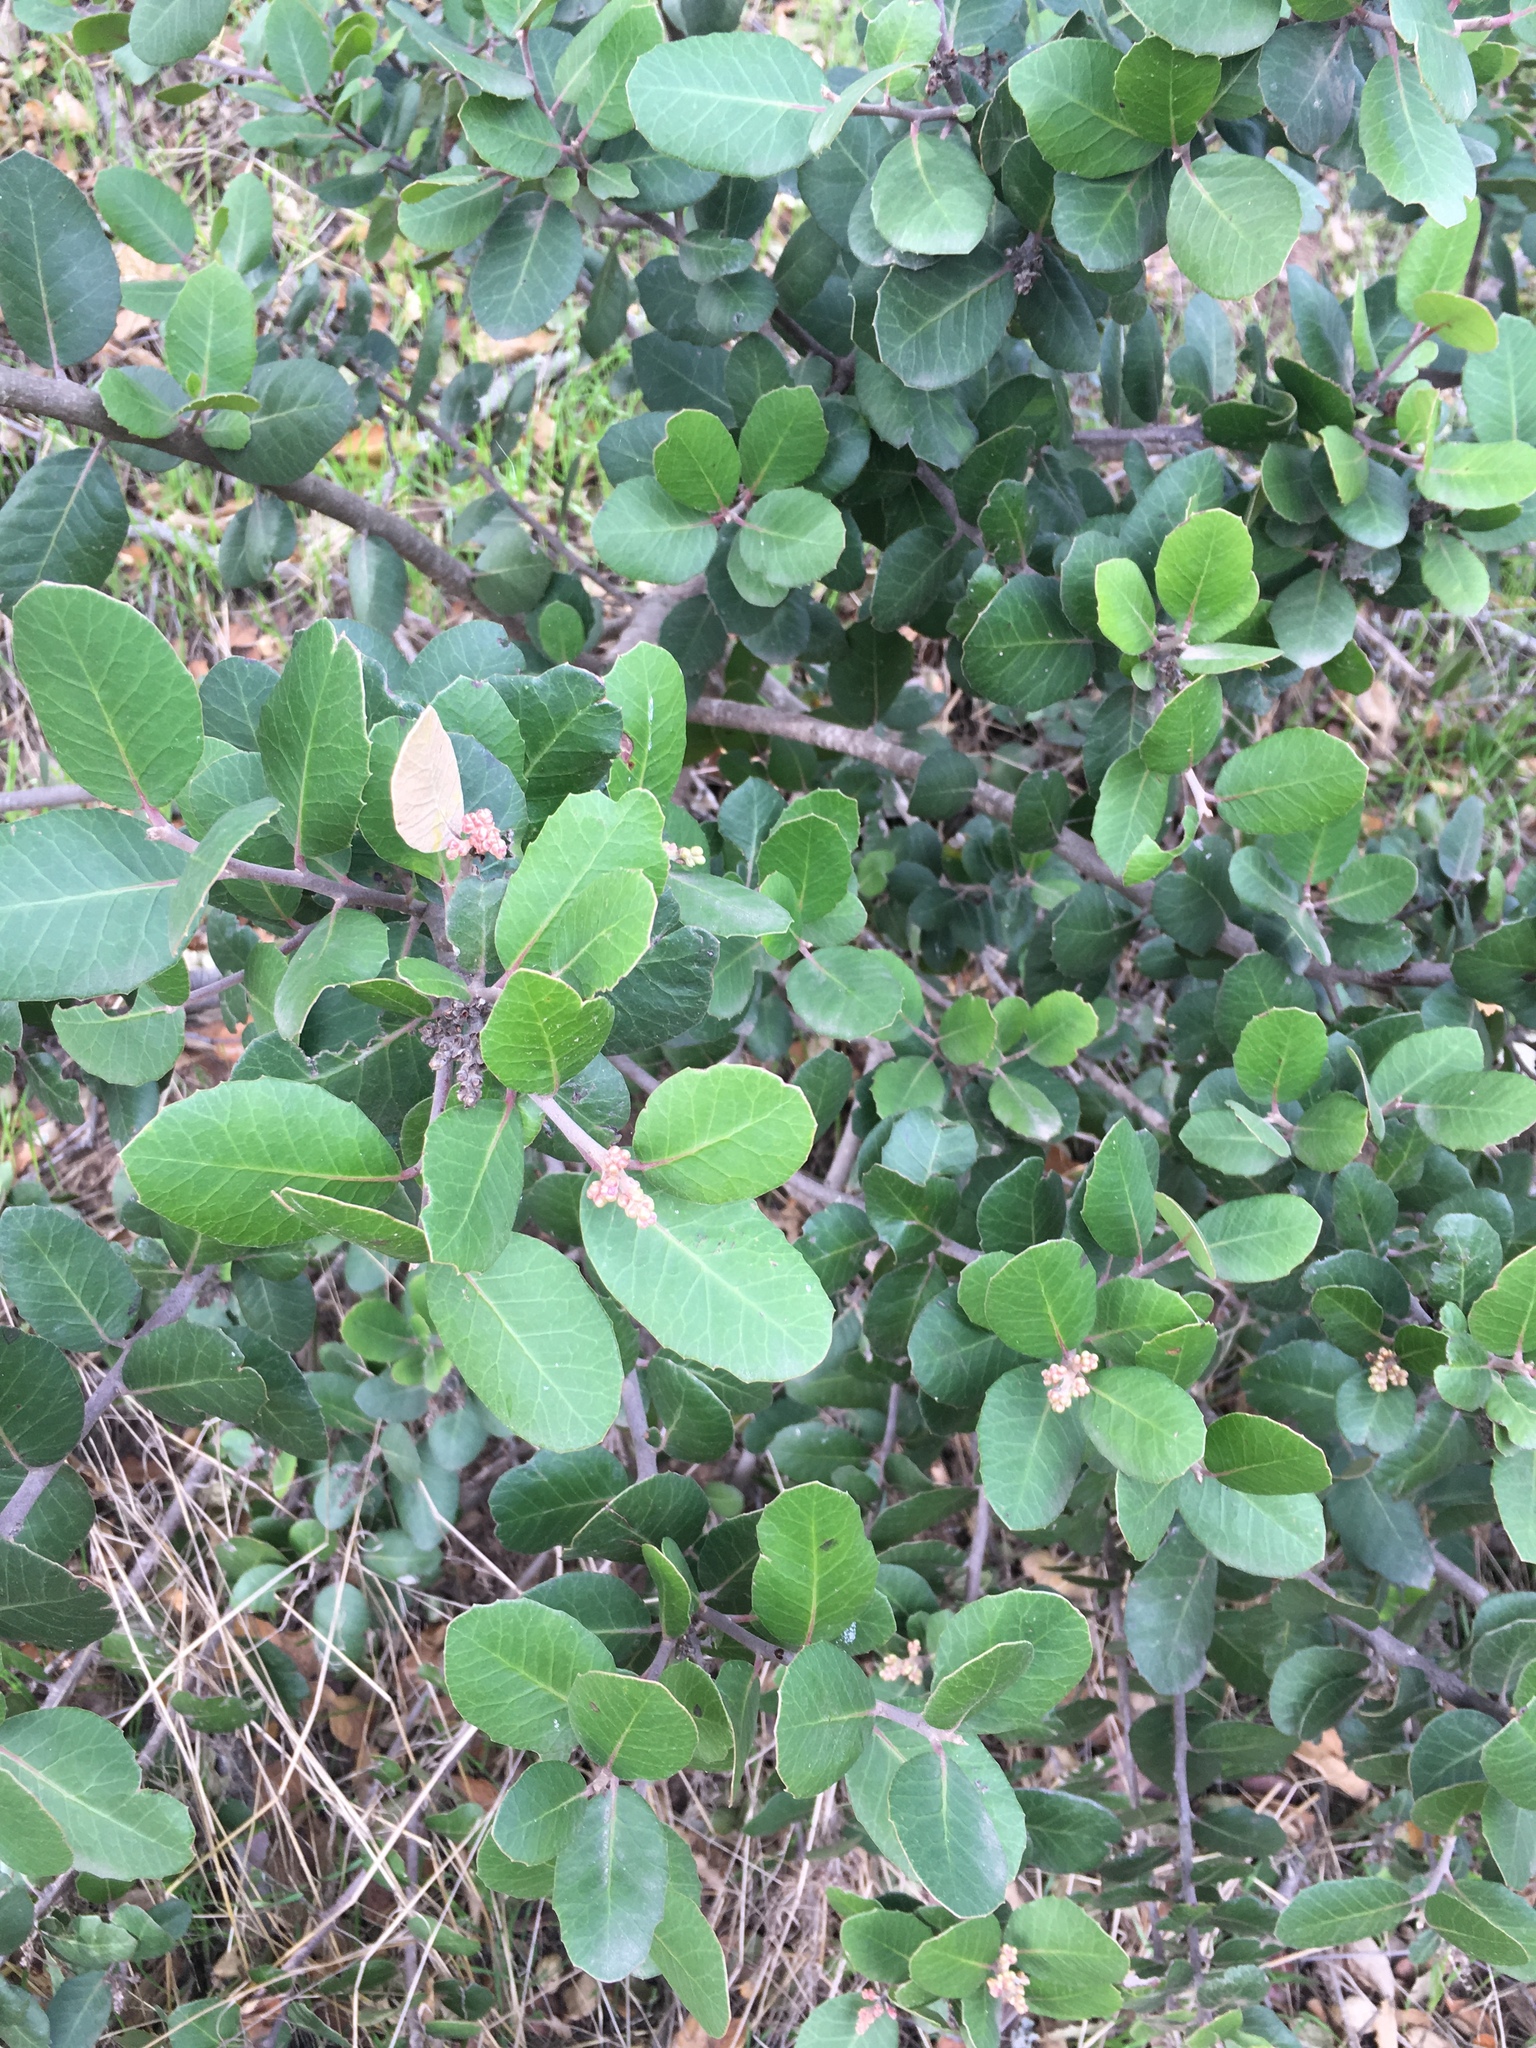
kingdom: Plantae
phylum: Tracheophyta
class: Magnoliopsida
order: Sapindales
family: Anacardiaceae
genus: Rhus
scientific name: Rhus integrifolia
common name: Lemonade sumac
